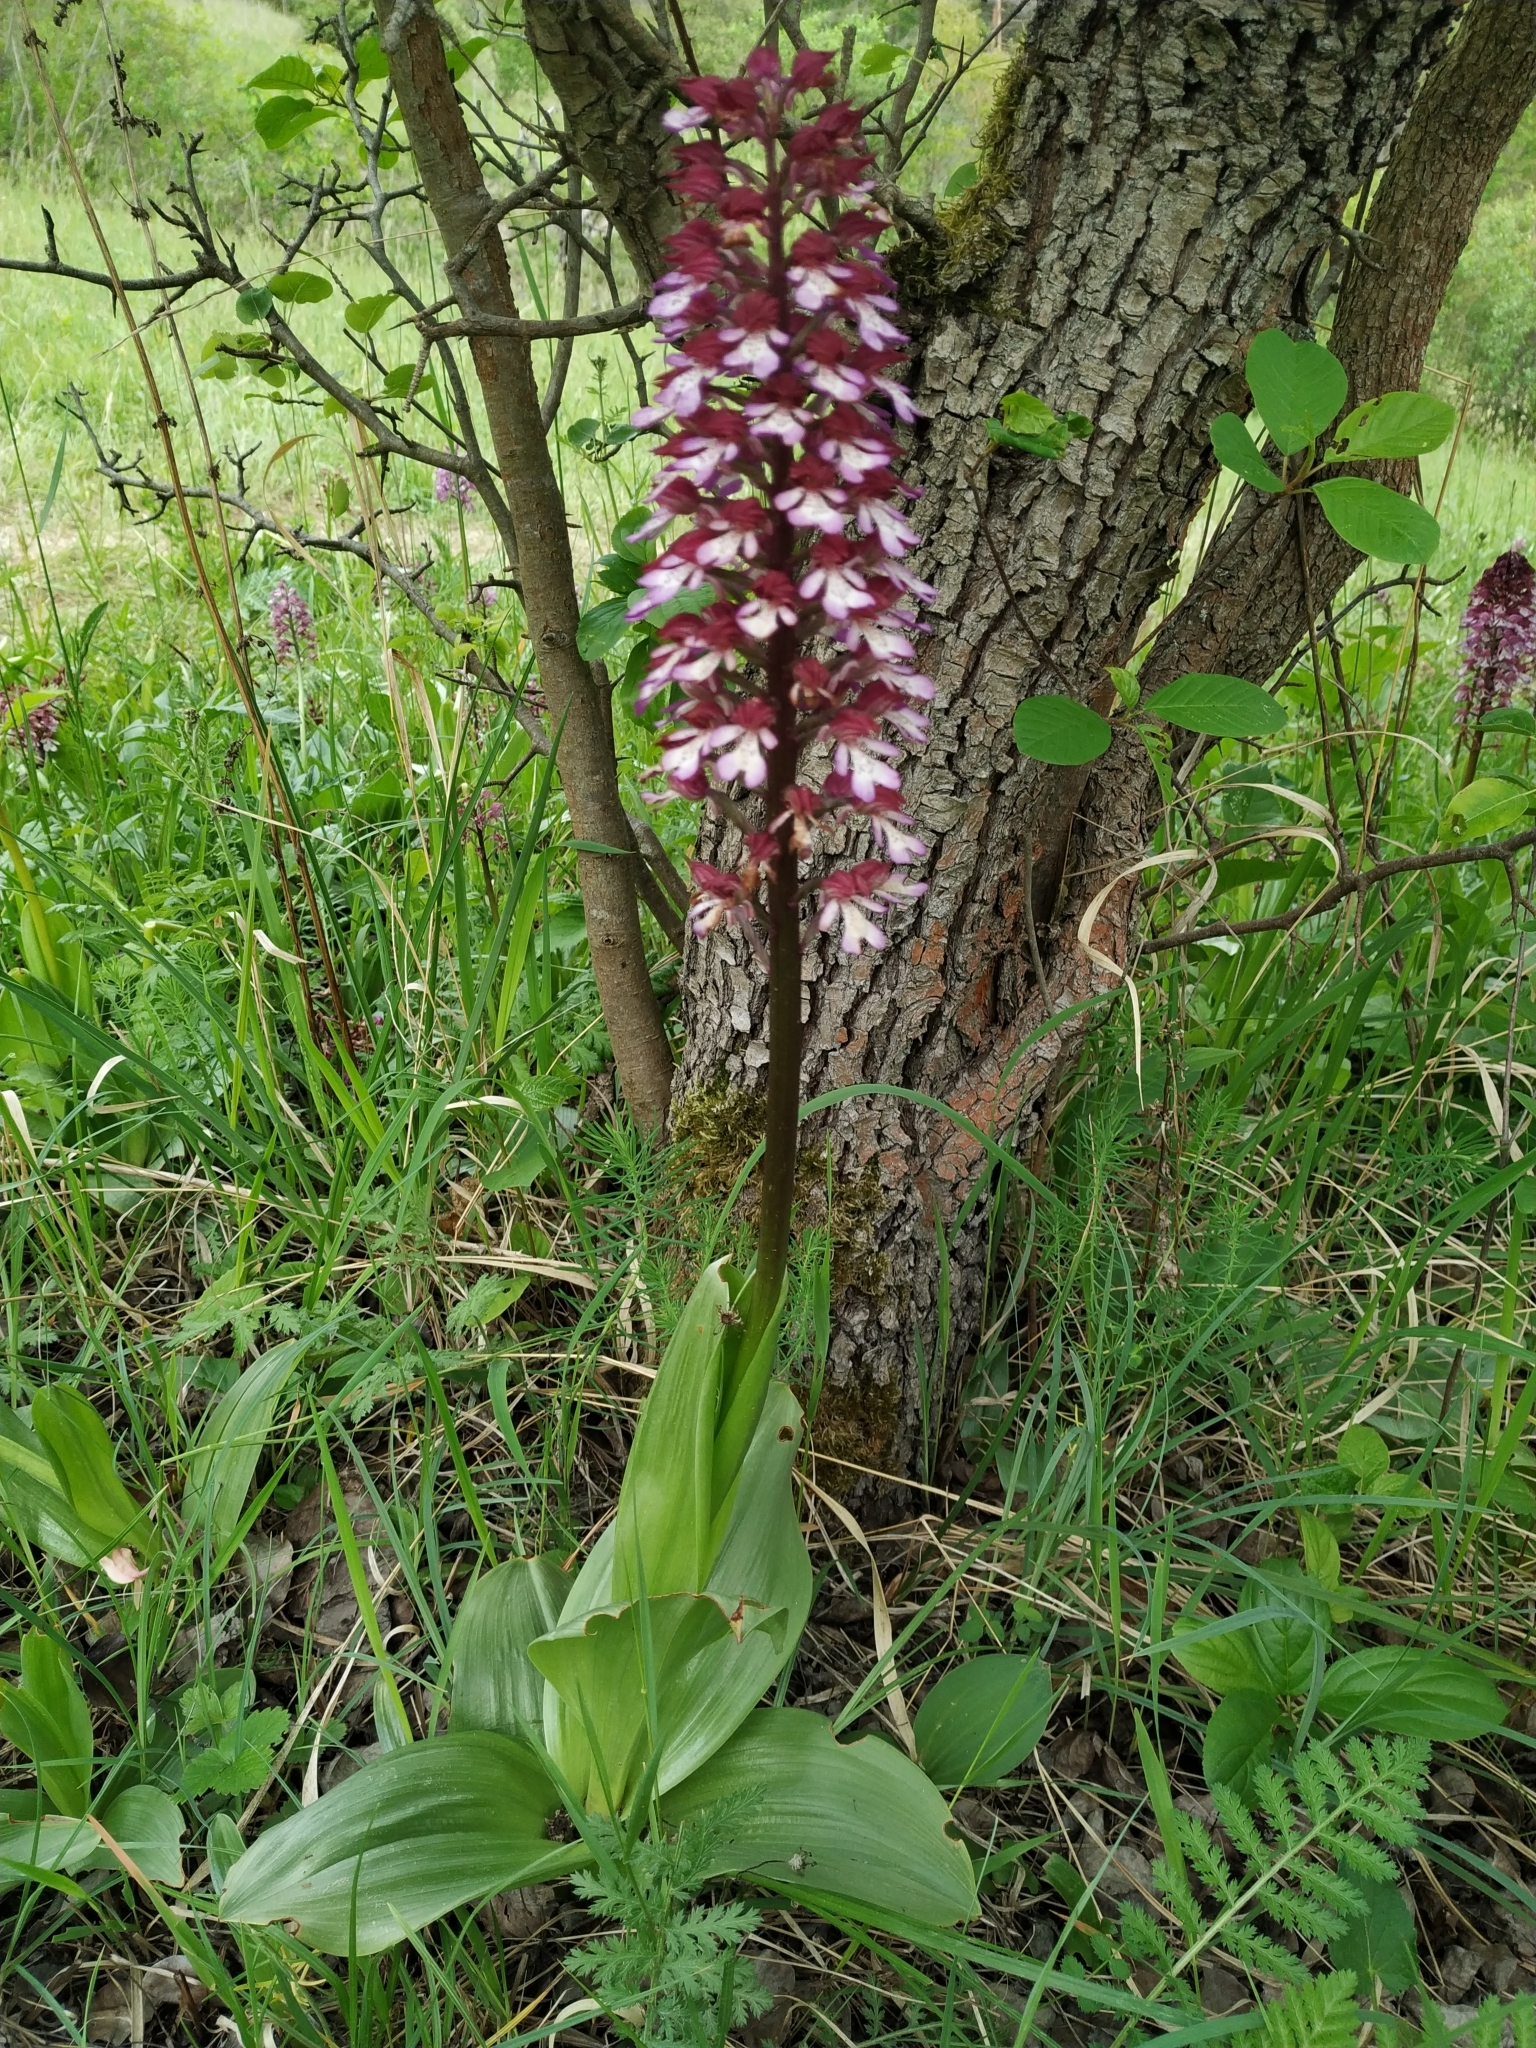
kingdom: Plantae
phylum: Tracheophyta
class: Liliopsida
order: Asparagales
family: Orchidaceae
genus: Orchis
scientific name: Orchis purpurea
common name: Lady orchid
